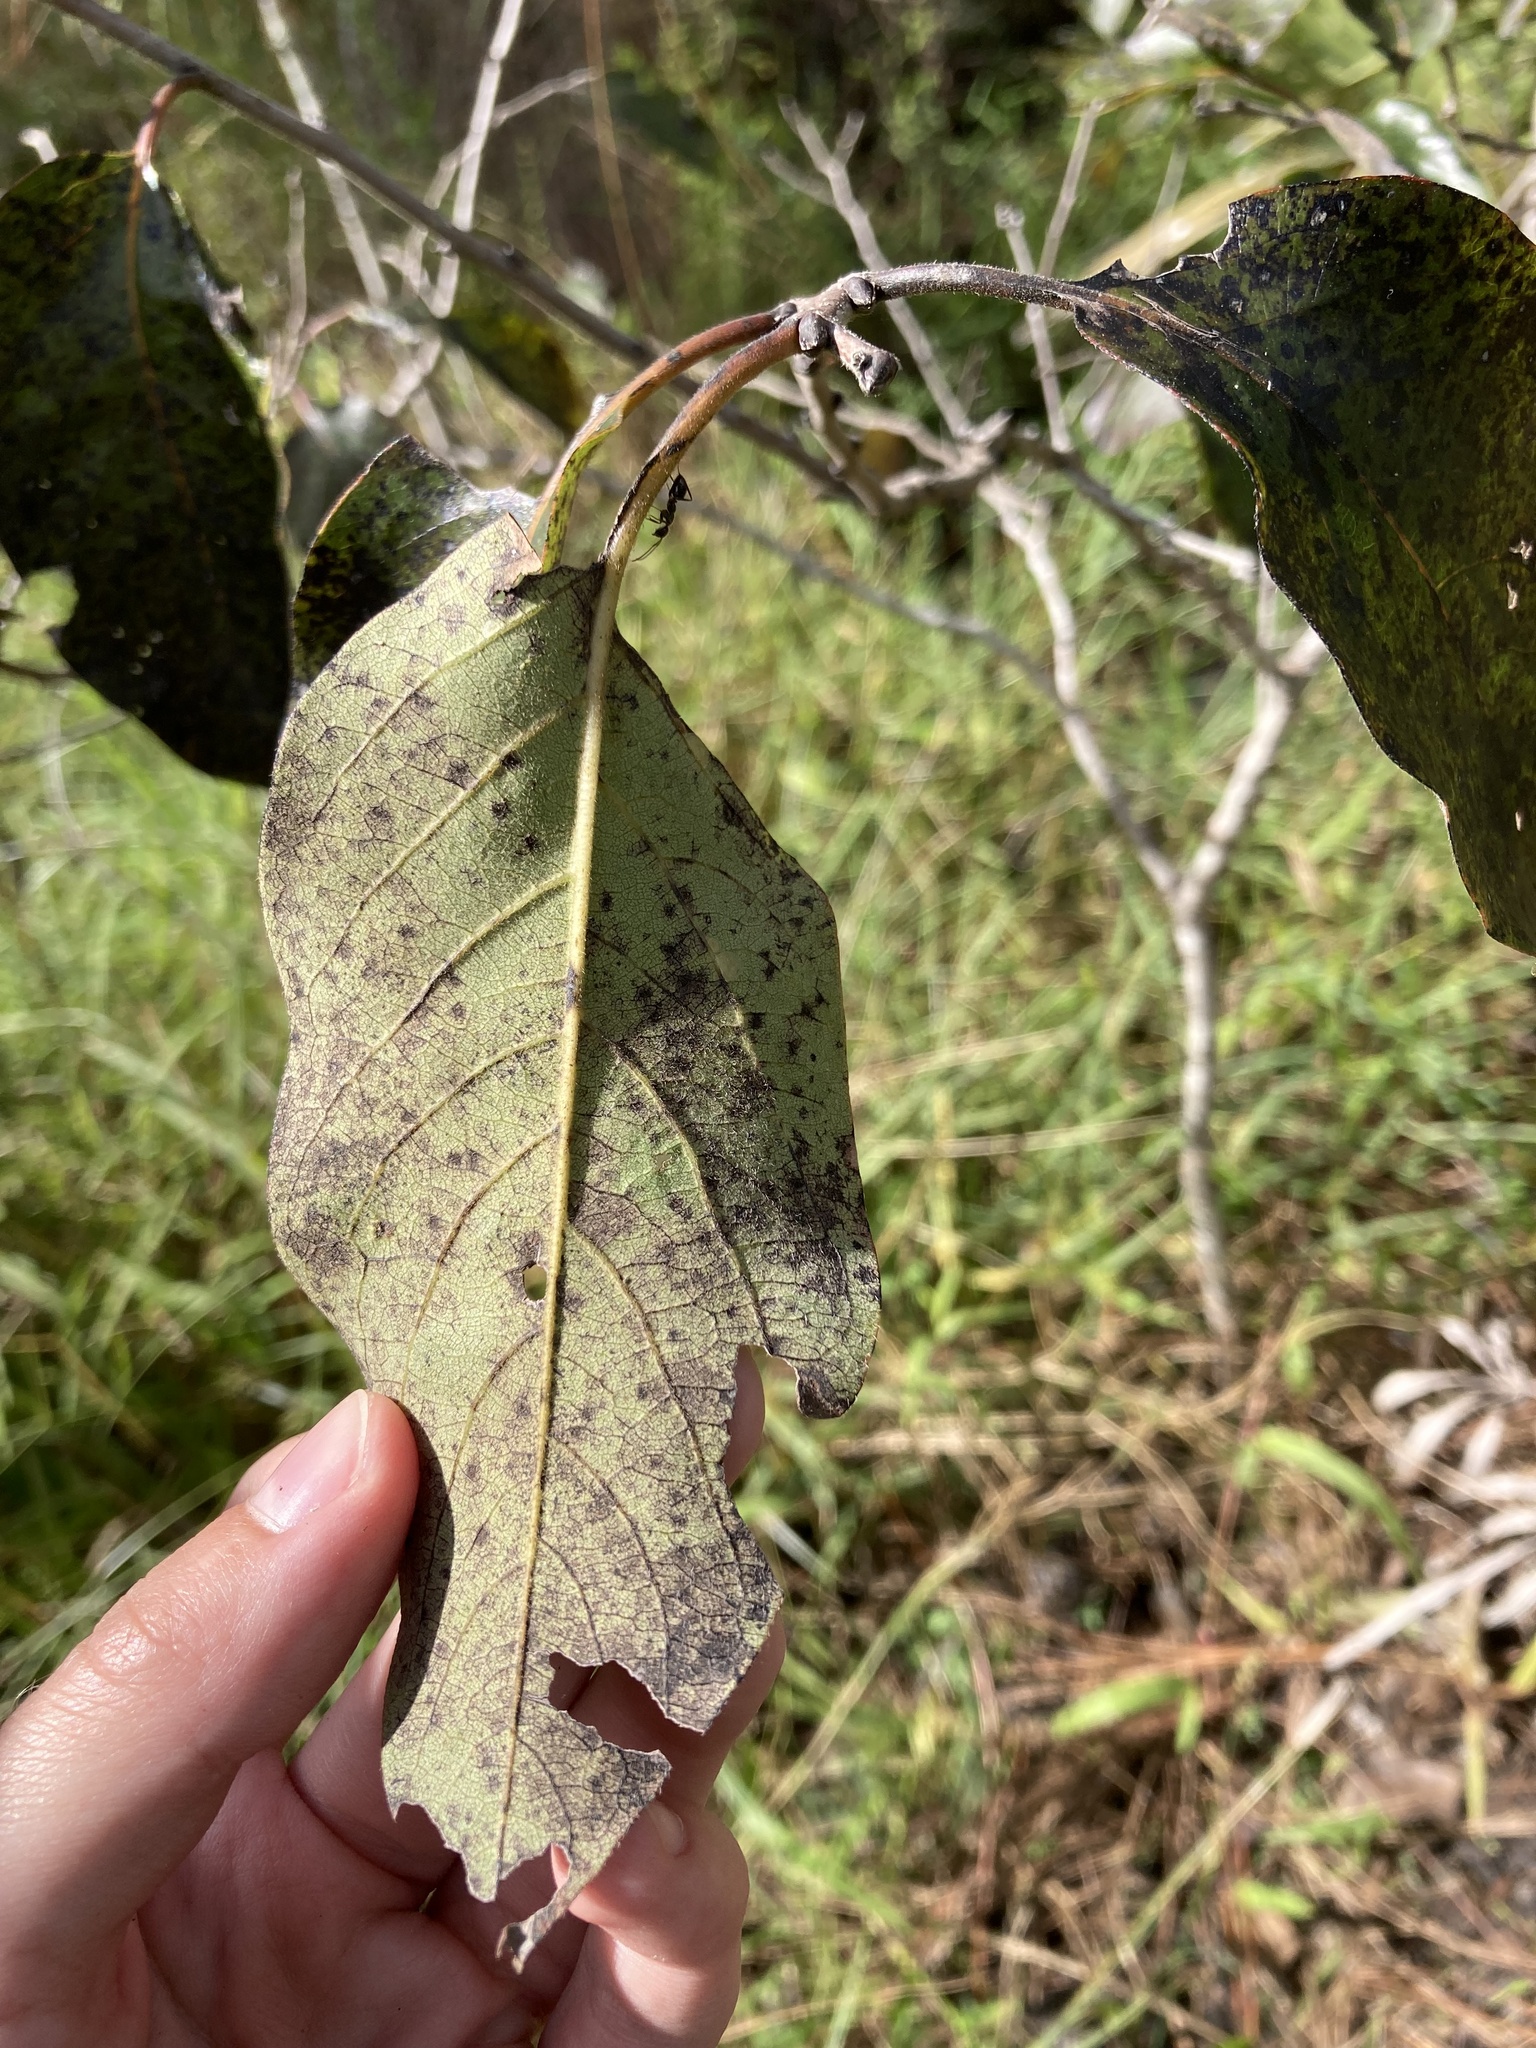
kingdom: Plantae
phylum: Tracheophyta
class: Magnoliopsida
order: Ericales
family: Ebenaceae
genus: Diospyros
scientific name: Diospyros virginiana
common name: Persimmon
